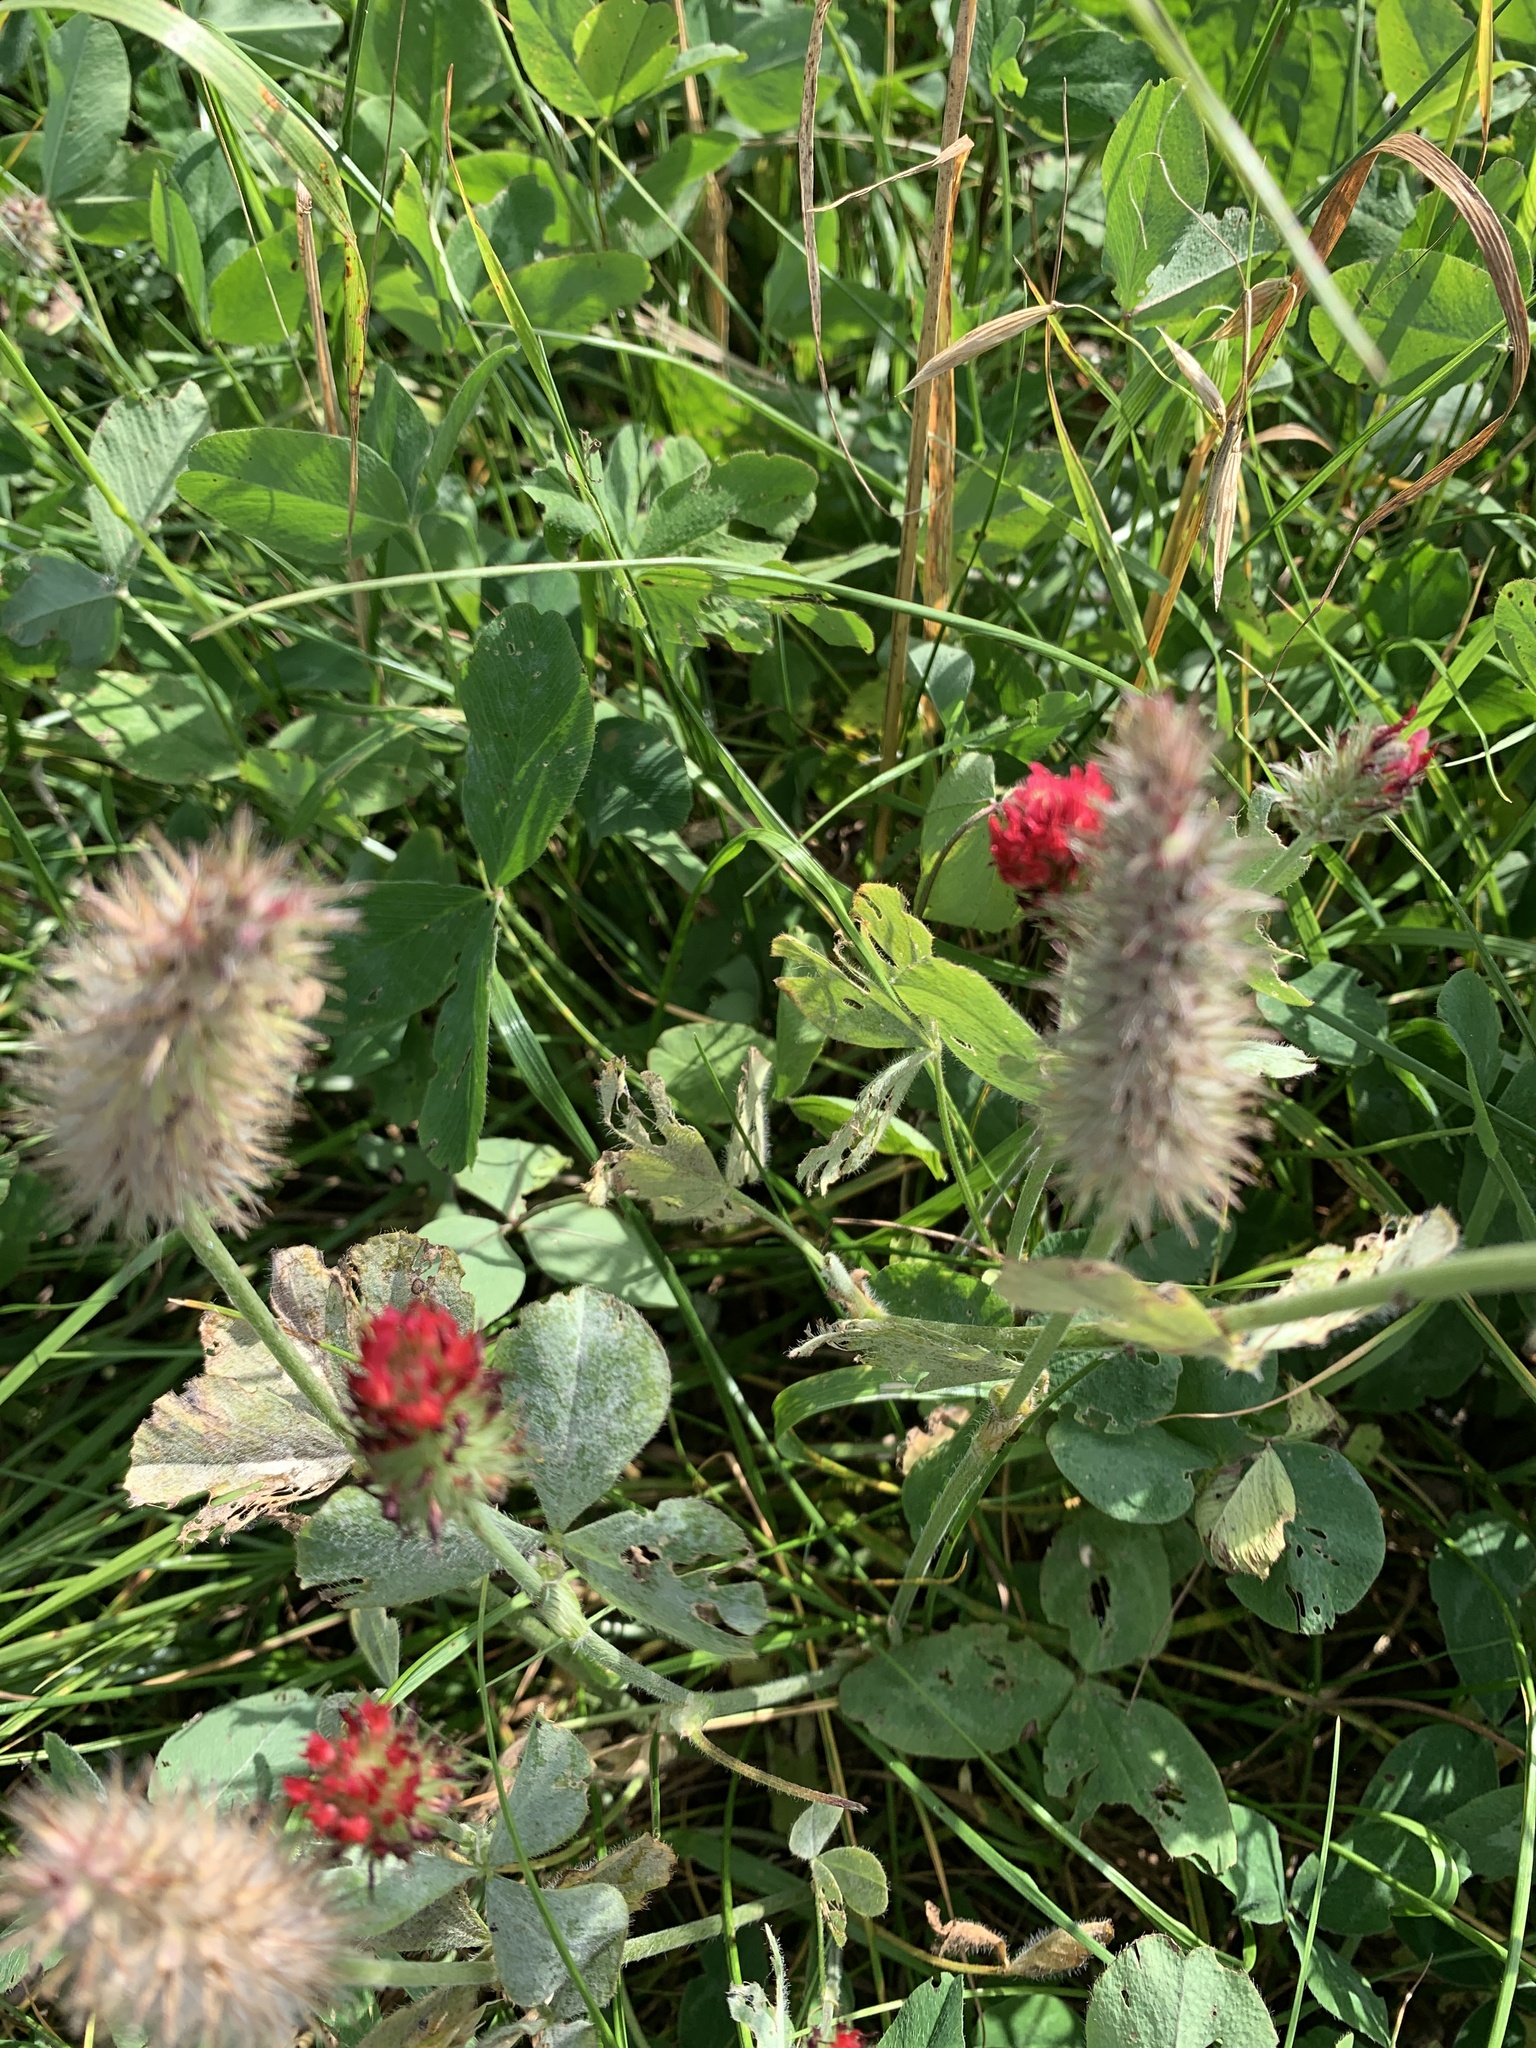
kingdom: Plantae
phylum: Tracheophyta
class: Magnoliopsida
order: Fabales
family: Fabaceae
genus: Trifolium
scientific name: Trifolium incarnatum
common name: Crimson clover
